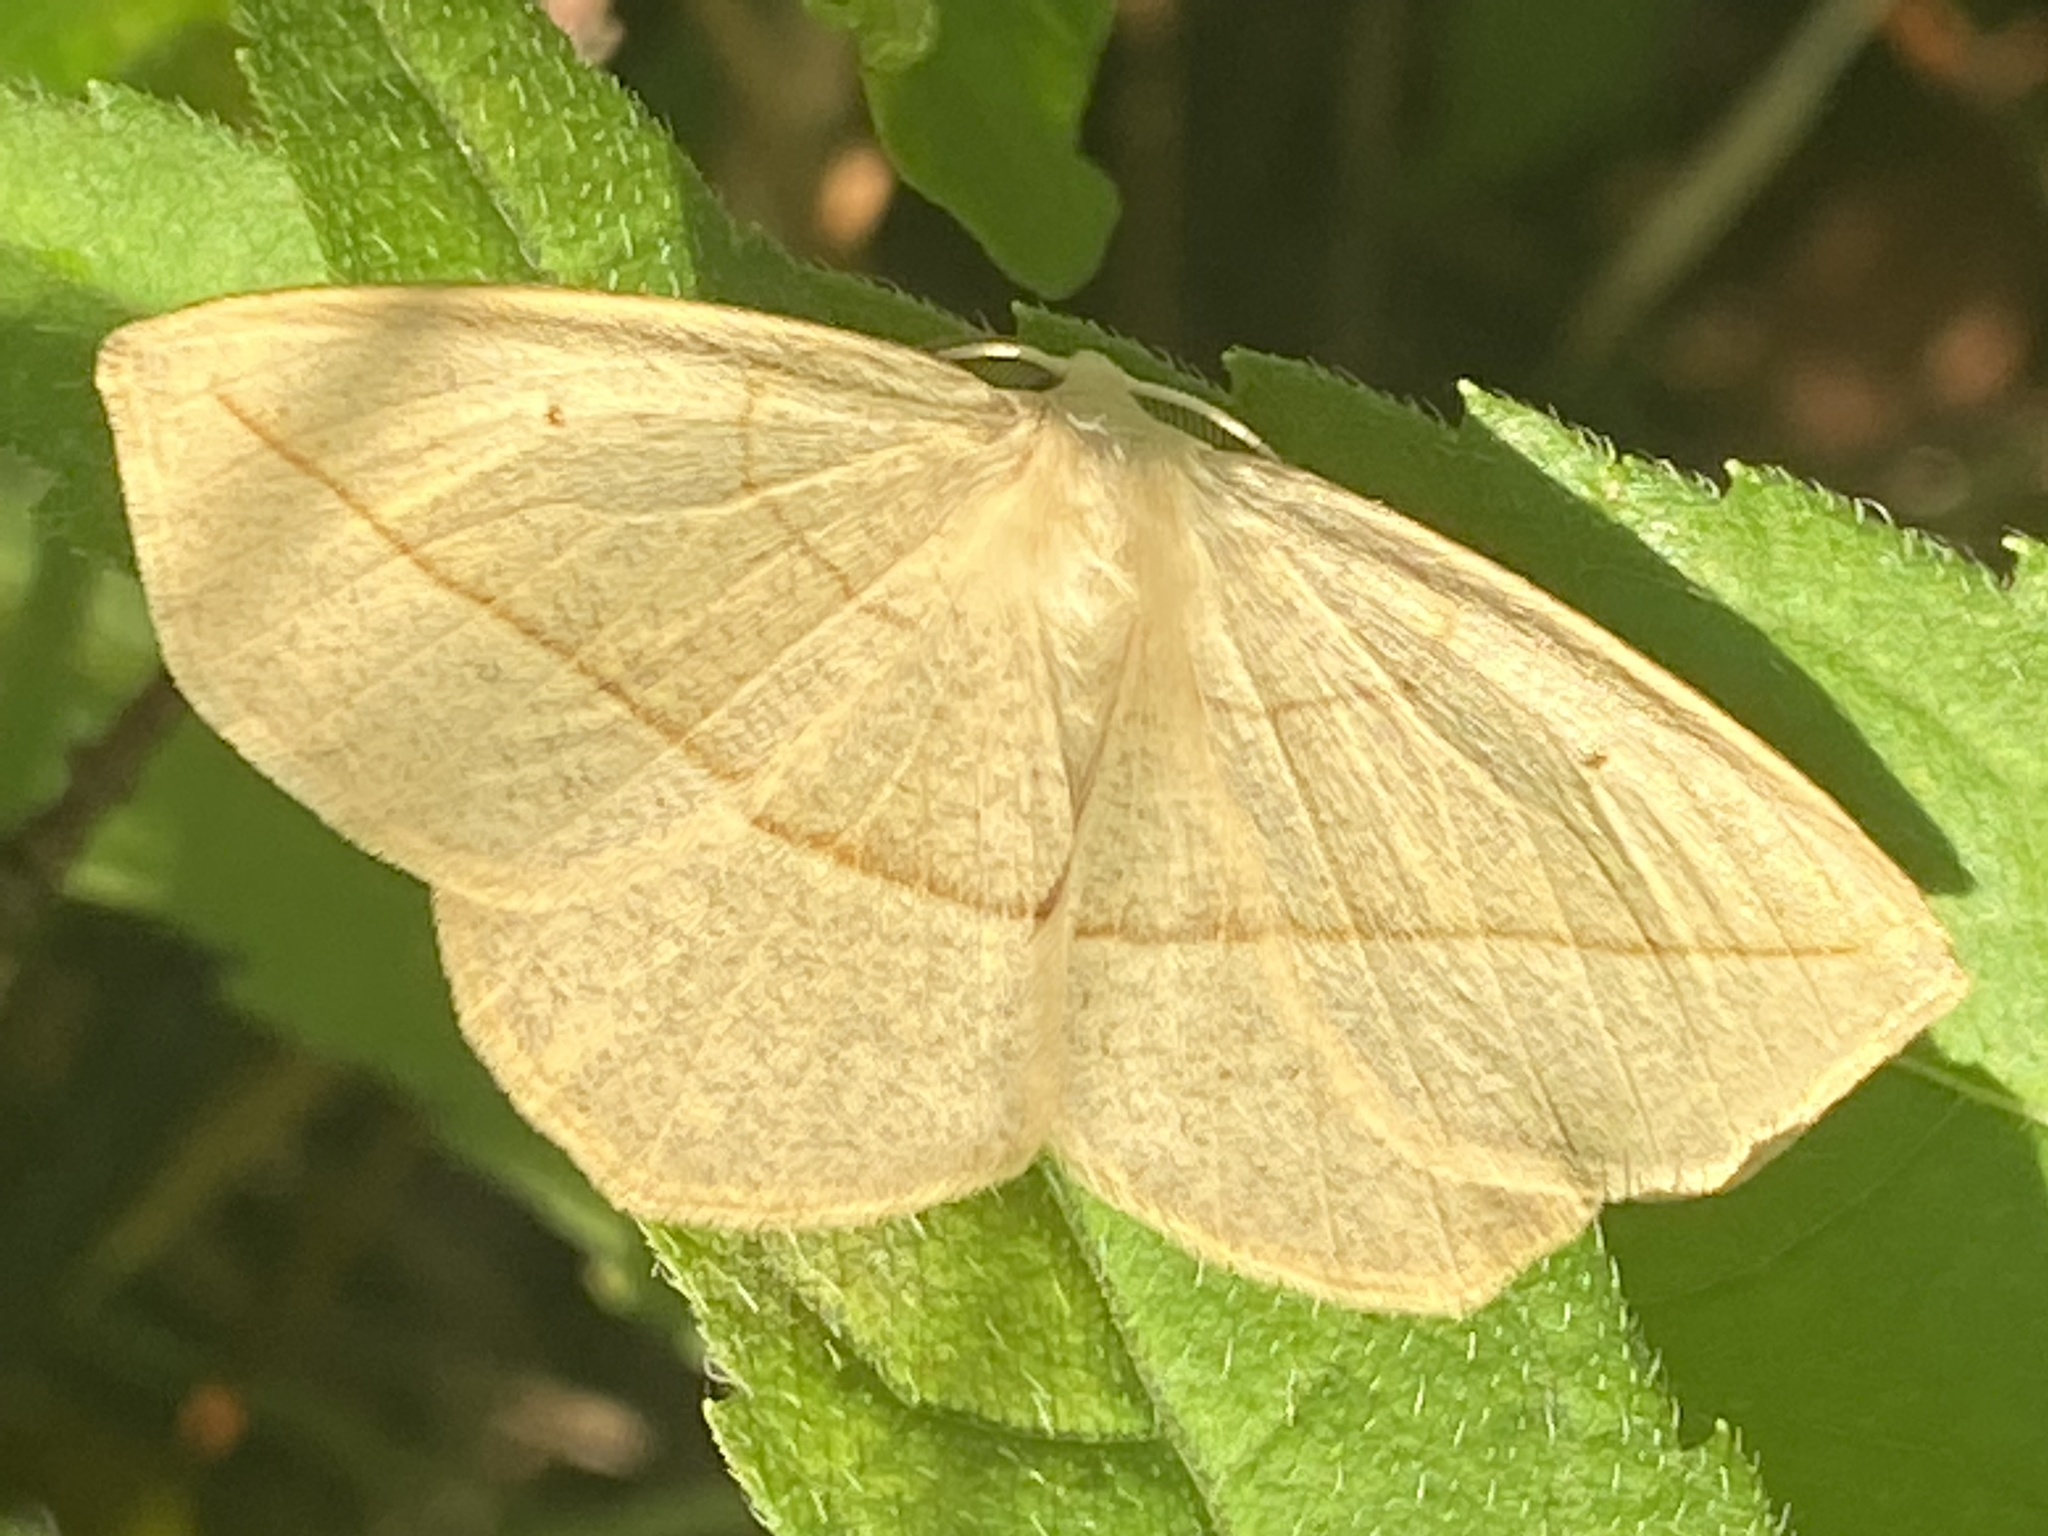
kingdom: Animalia
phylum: Arthropoda
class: Insecta
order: Lepidoptera
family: Geometridae
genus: Eusarca
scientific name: Eusarca confusaria
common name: Confused eusarca
